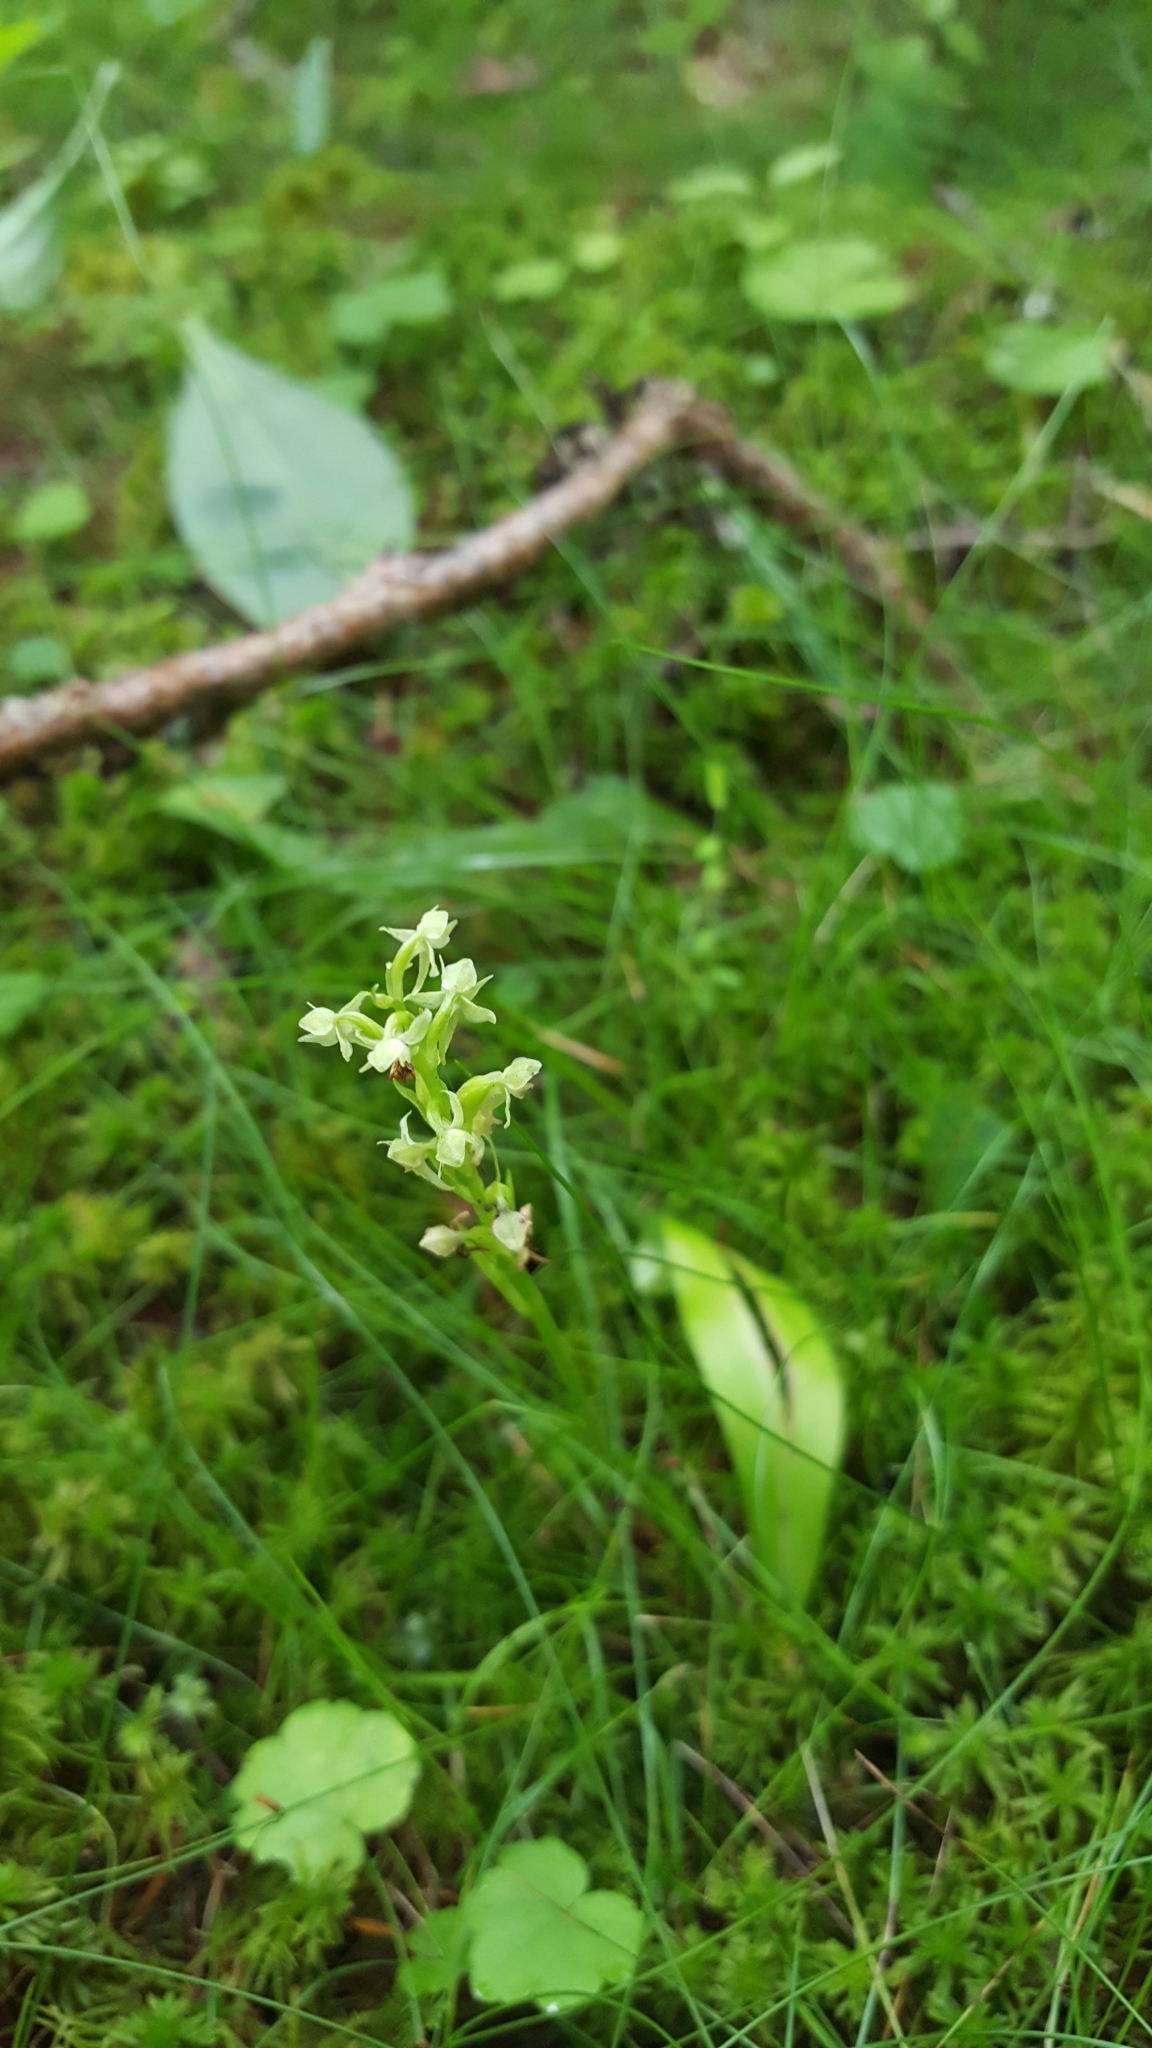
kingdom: Plantae
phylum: Tracheophyta
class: Liliopsida
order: Asparagales
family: Orchidaceae
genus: Platanthera
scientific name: Platanthera obtusata
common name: Blunt bog orchid
